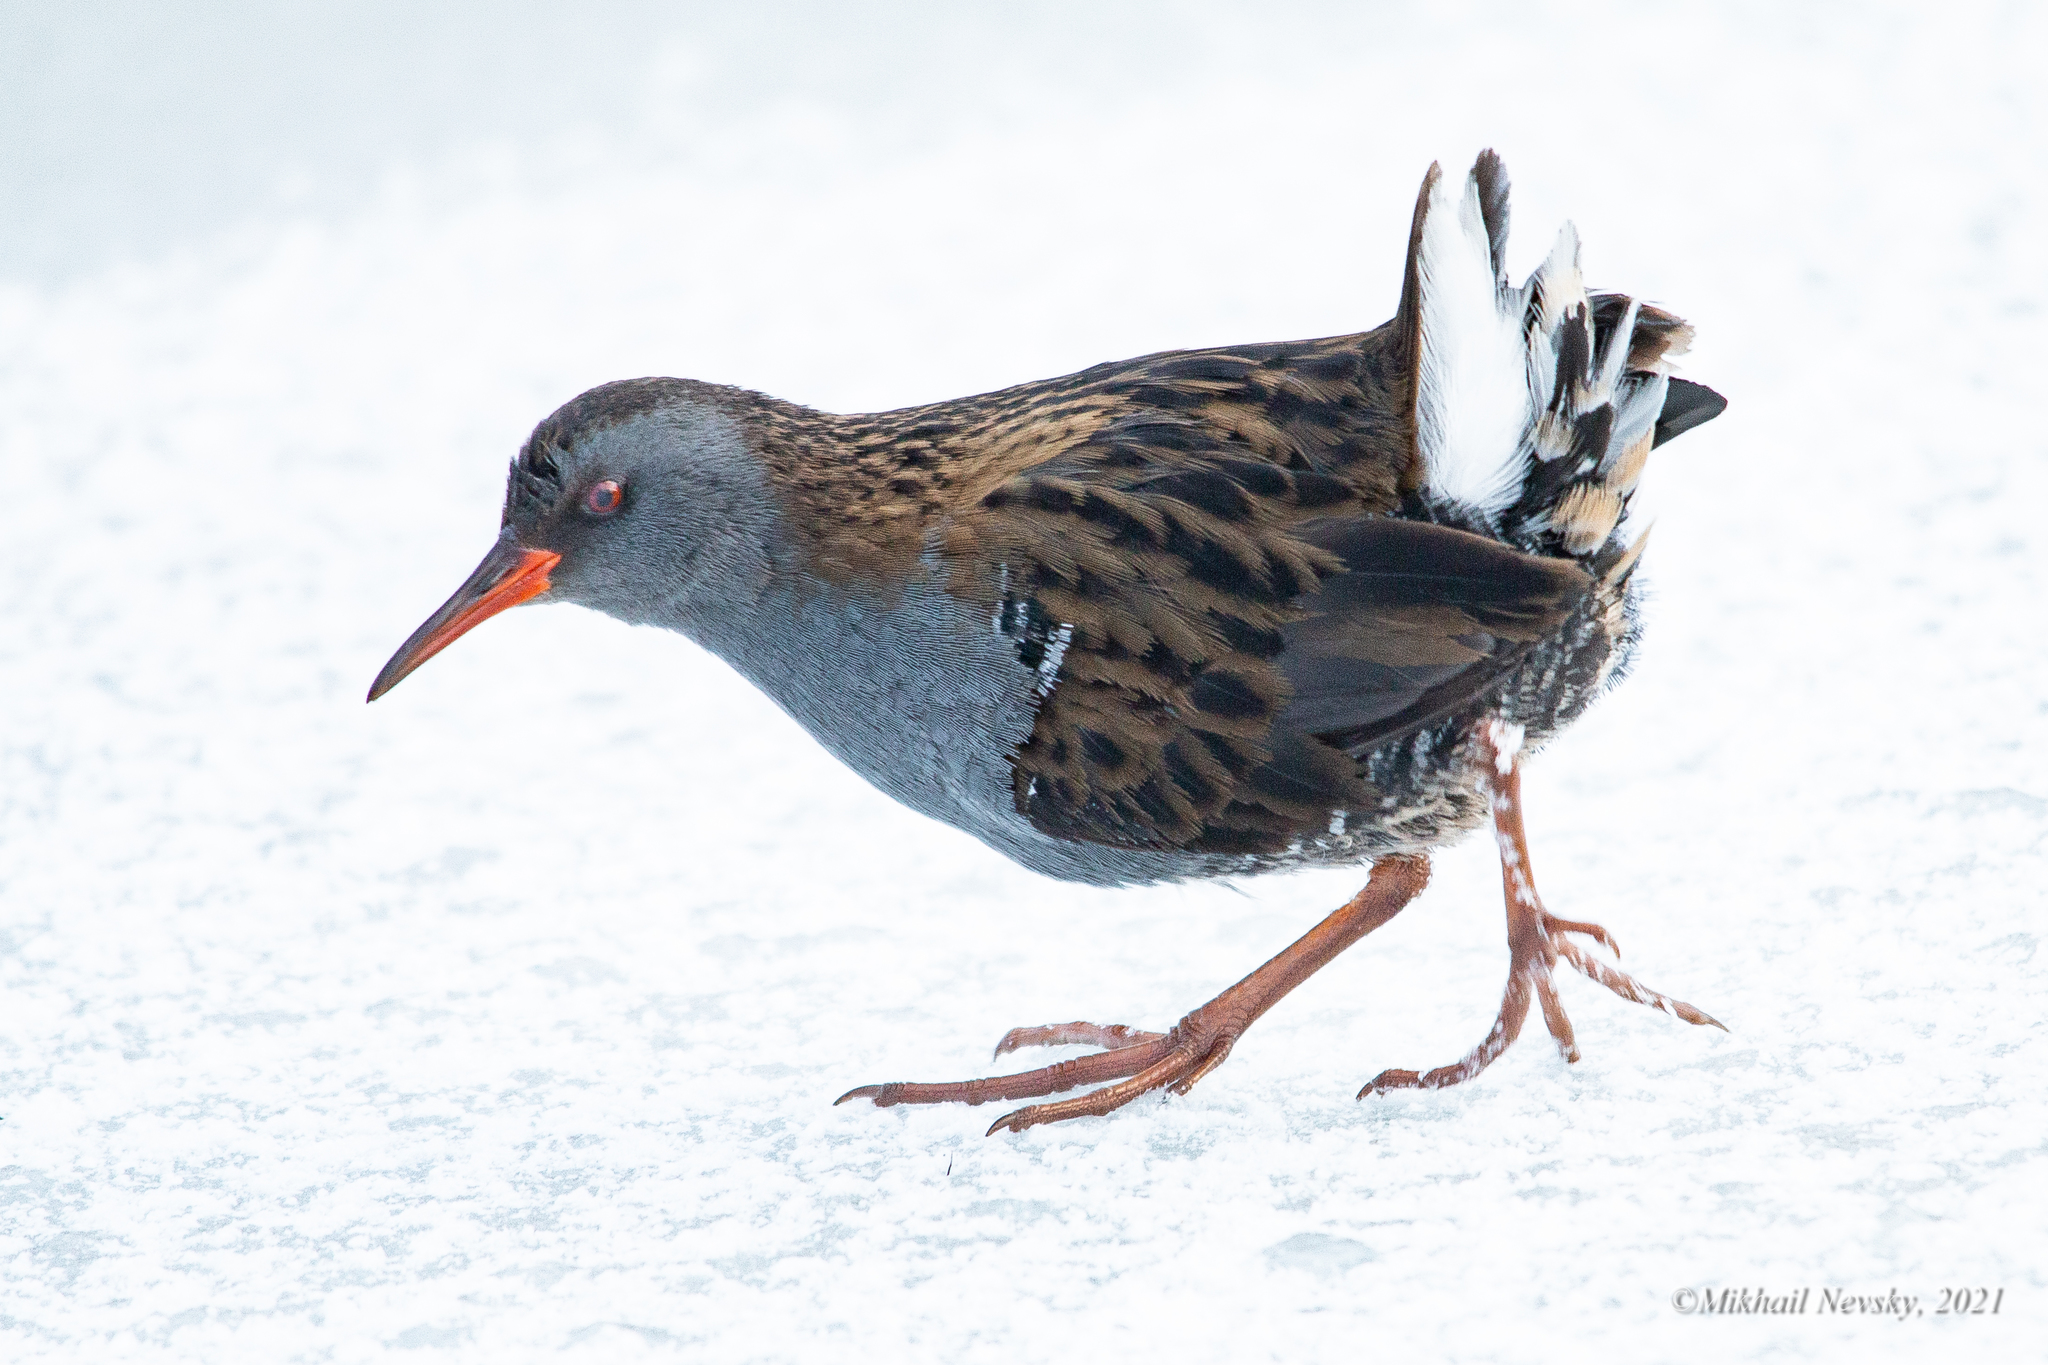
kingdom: Animalia
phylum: Chordata
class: Aves
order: Gruiformes
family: Rallidae
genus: Rallus
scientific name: Rallus aquaticus
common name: Water rail
